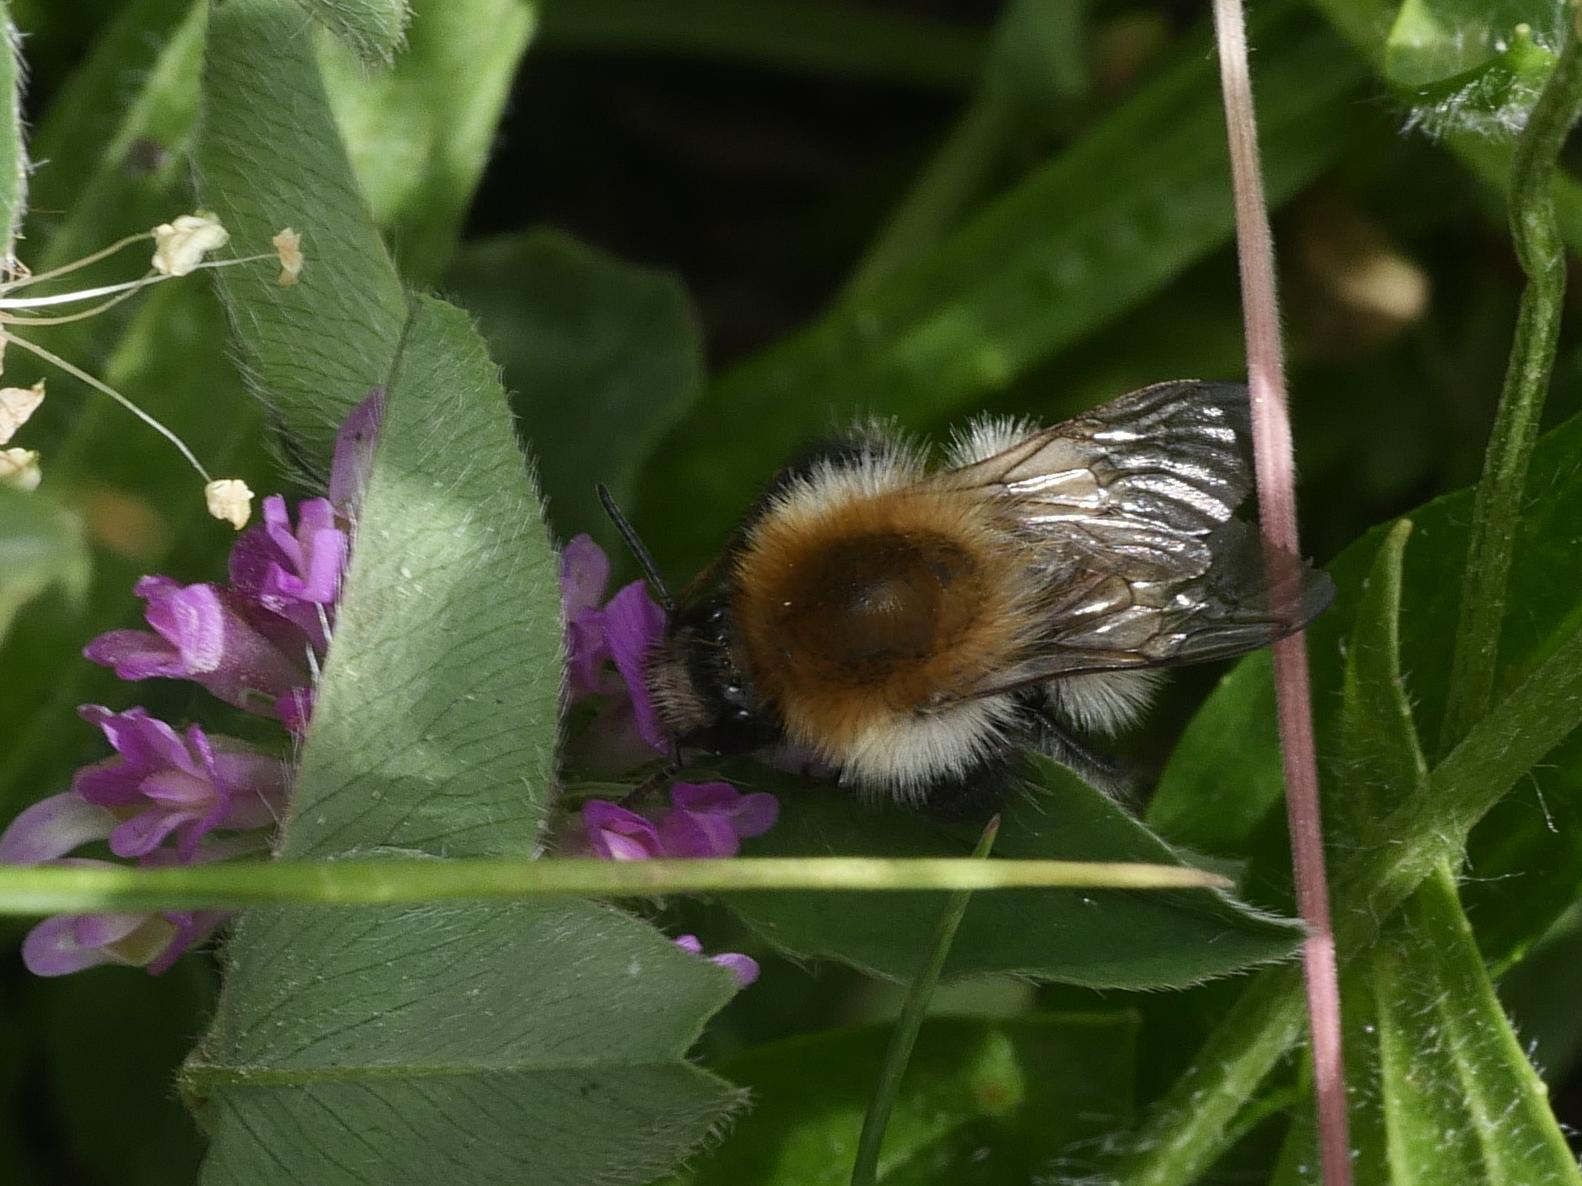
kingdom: Animalia
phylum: Arthropoda
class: Insecta
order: Hymenoptera
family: Apidae
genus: Bombus
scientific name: Bombus pascuorum
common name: Common carder bee
